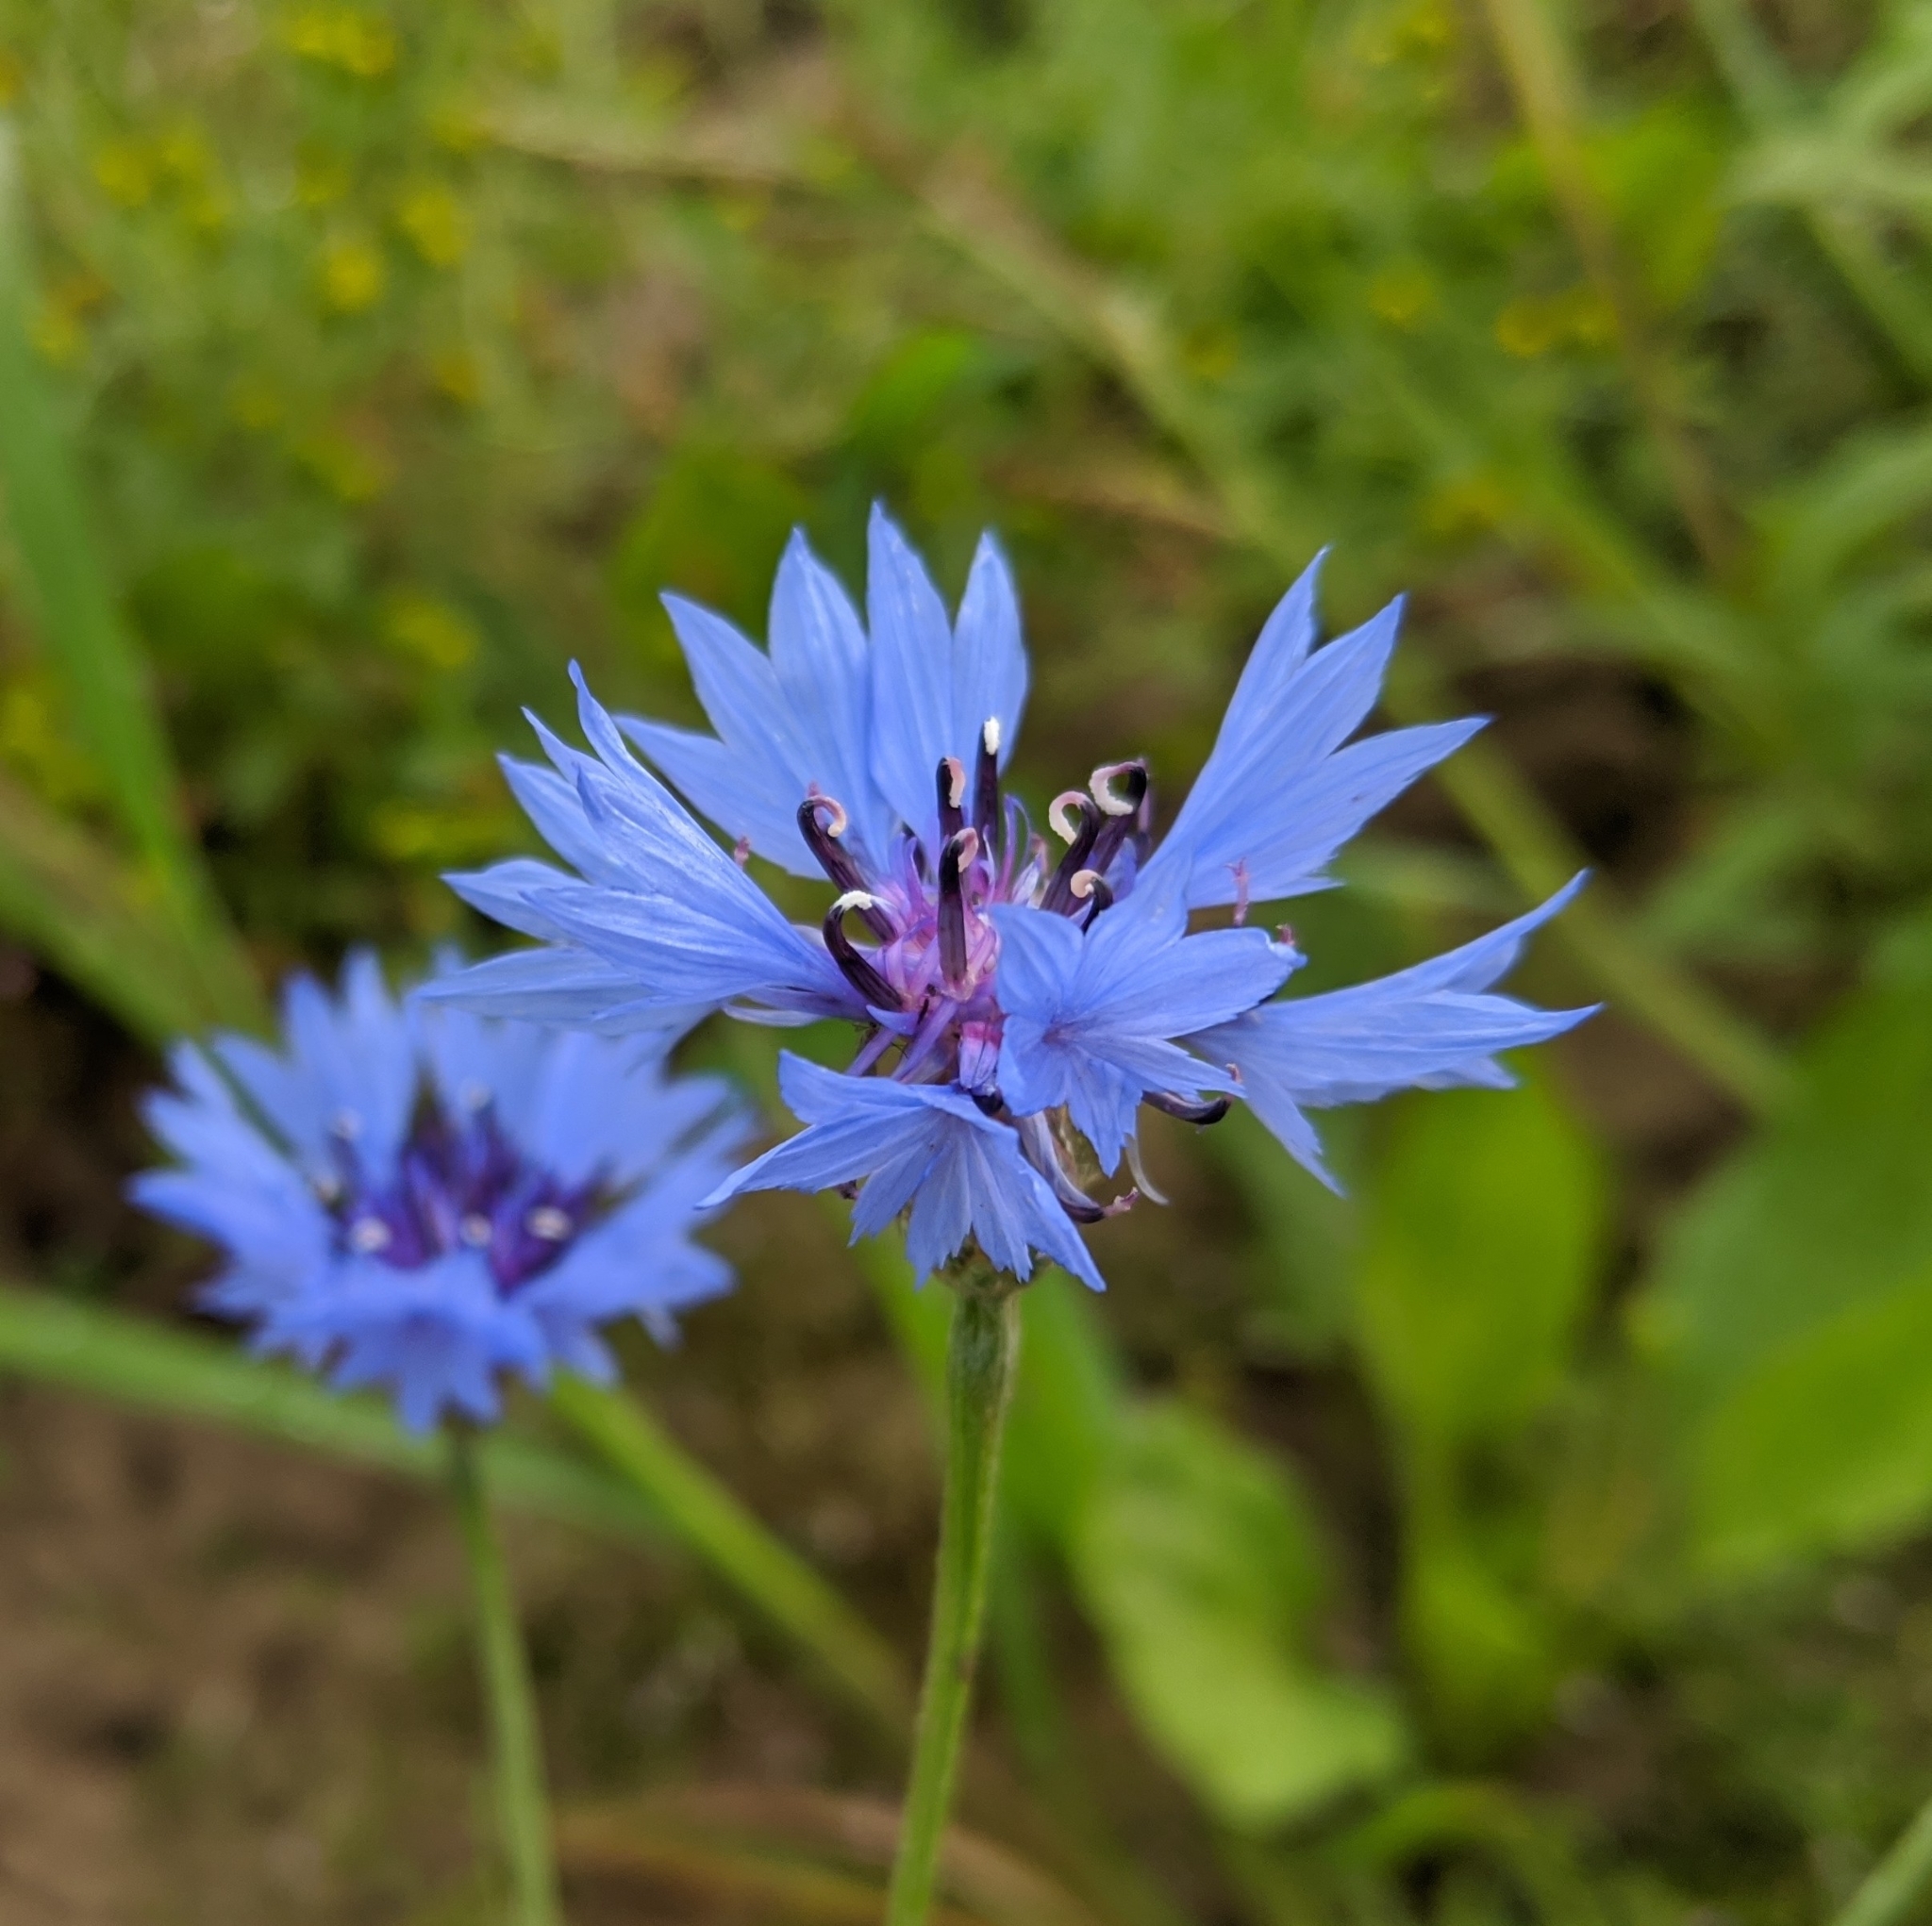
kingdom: Plantae
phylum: Tracheophyta
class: Magnoliopsida
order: Asterales
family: Asteraceae
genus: Centaurea
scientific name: Centaurea cyanus
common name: Cornflower
